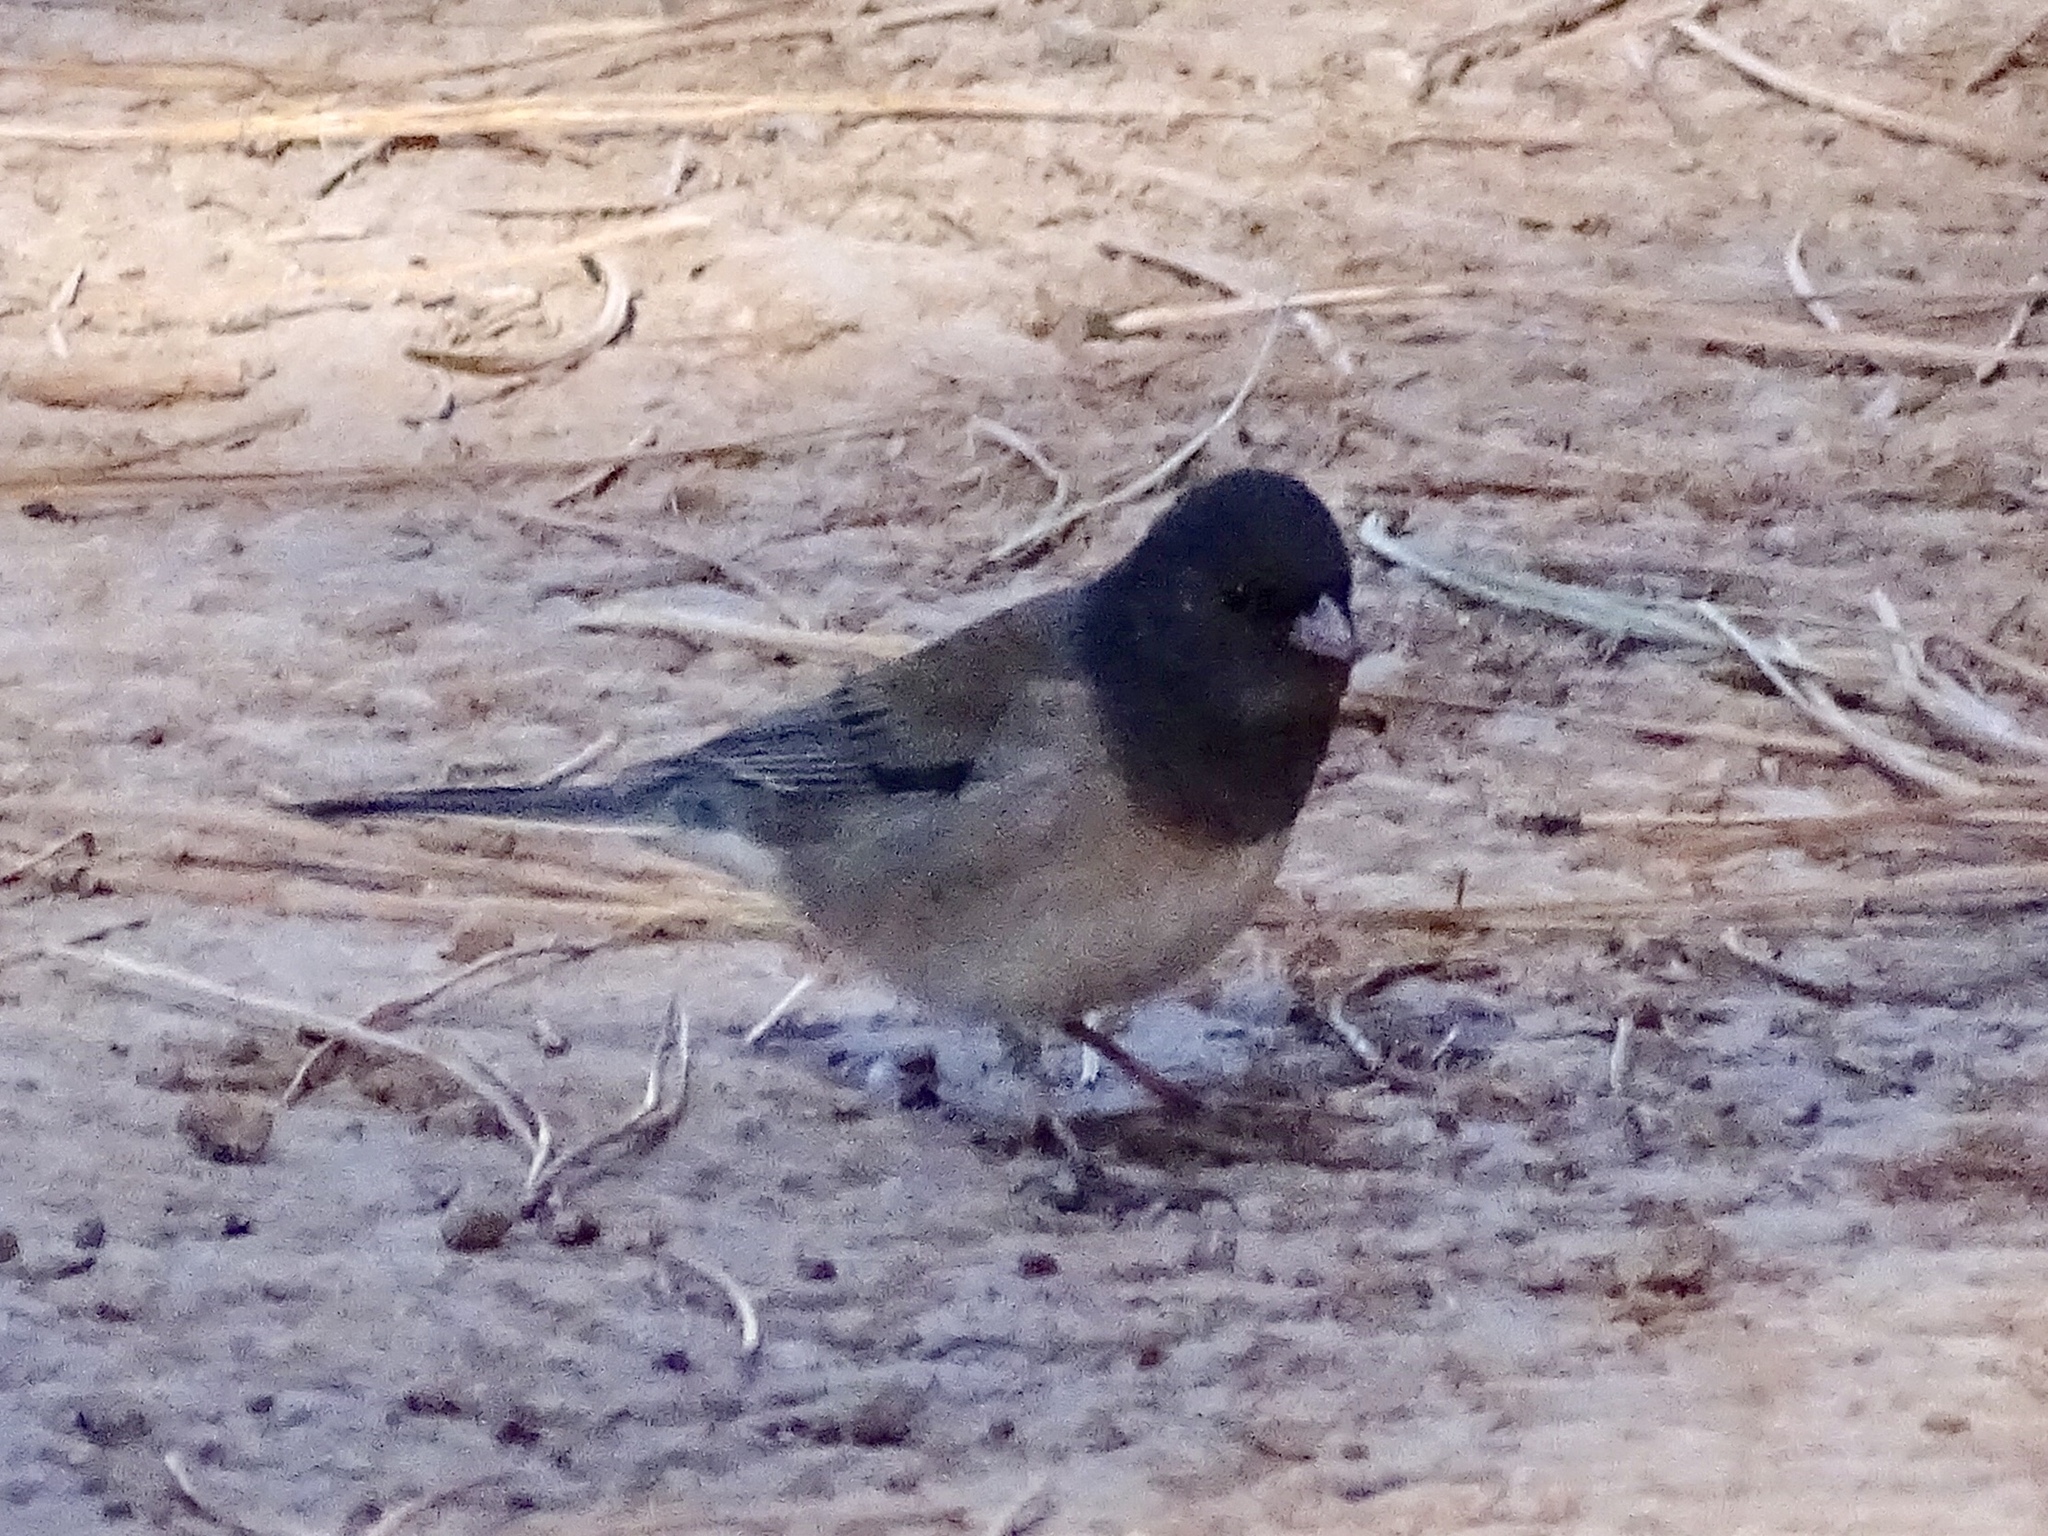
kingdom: Animalia
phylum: Chordata
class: Aves
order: Passeriformes
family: Passerellidae
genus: Junco
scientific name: Junco hyemalis
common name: Dark-eyed junco
